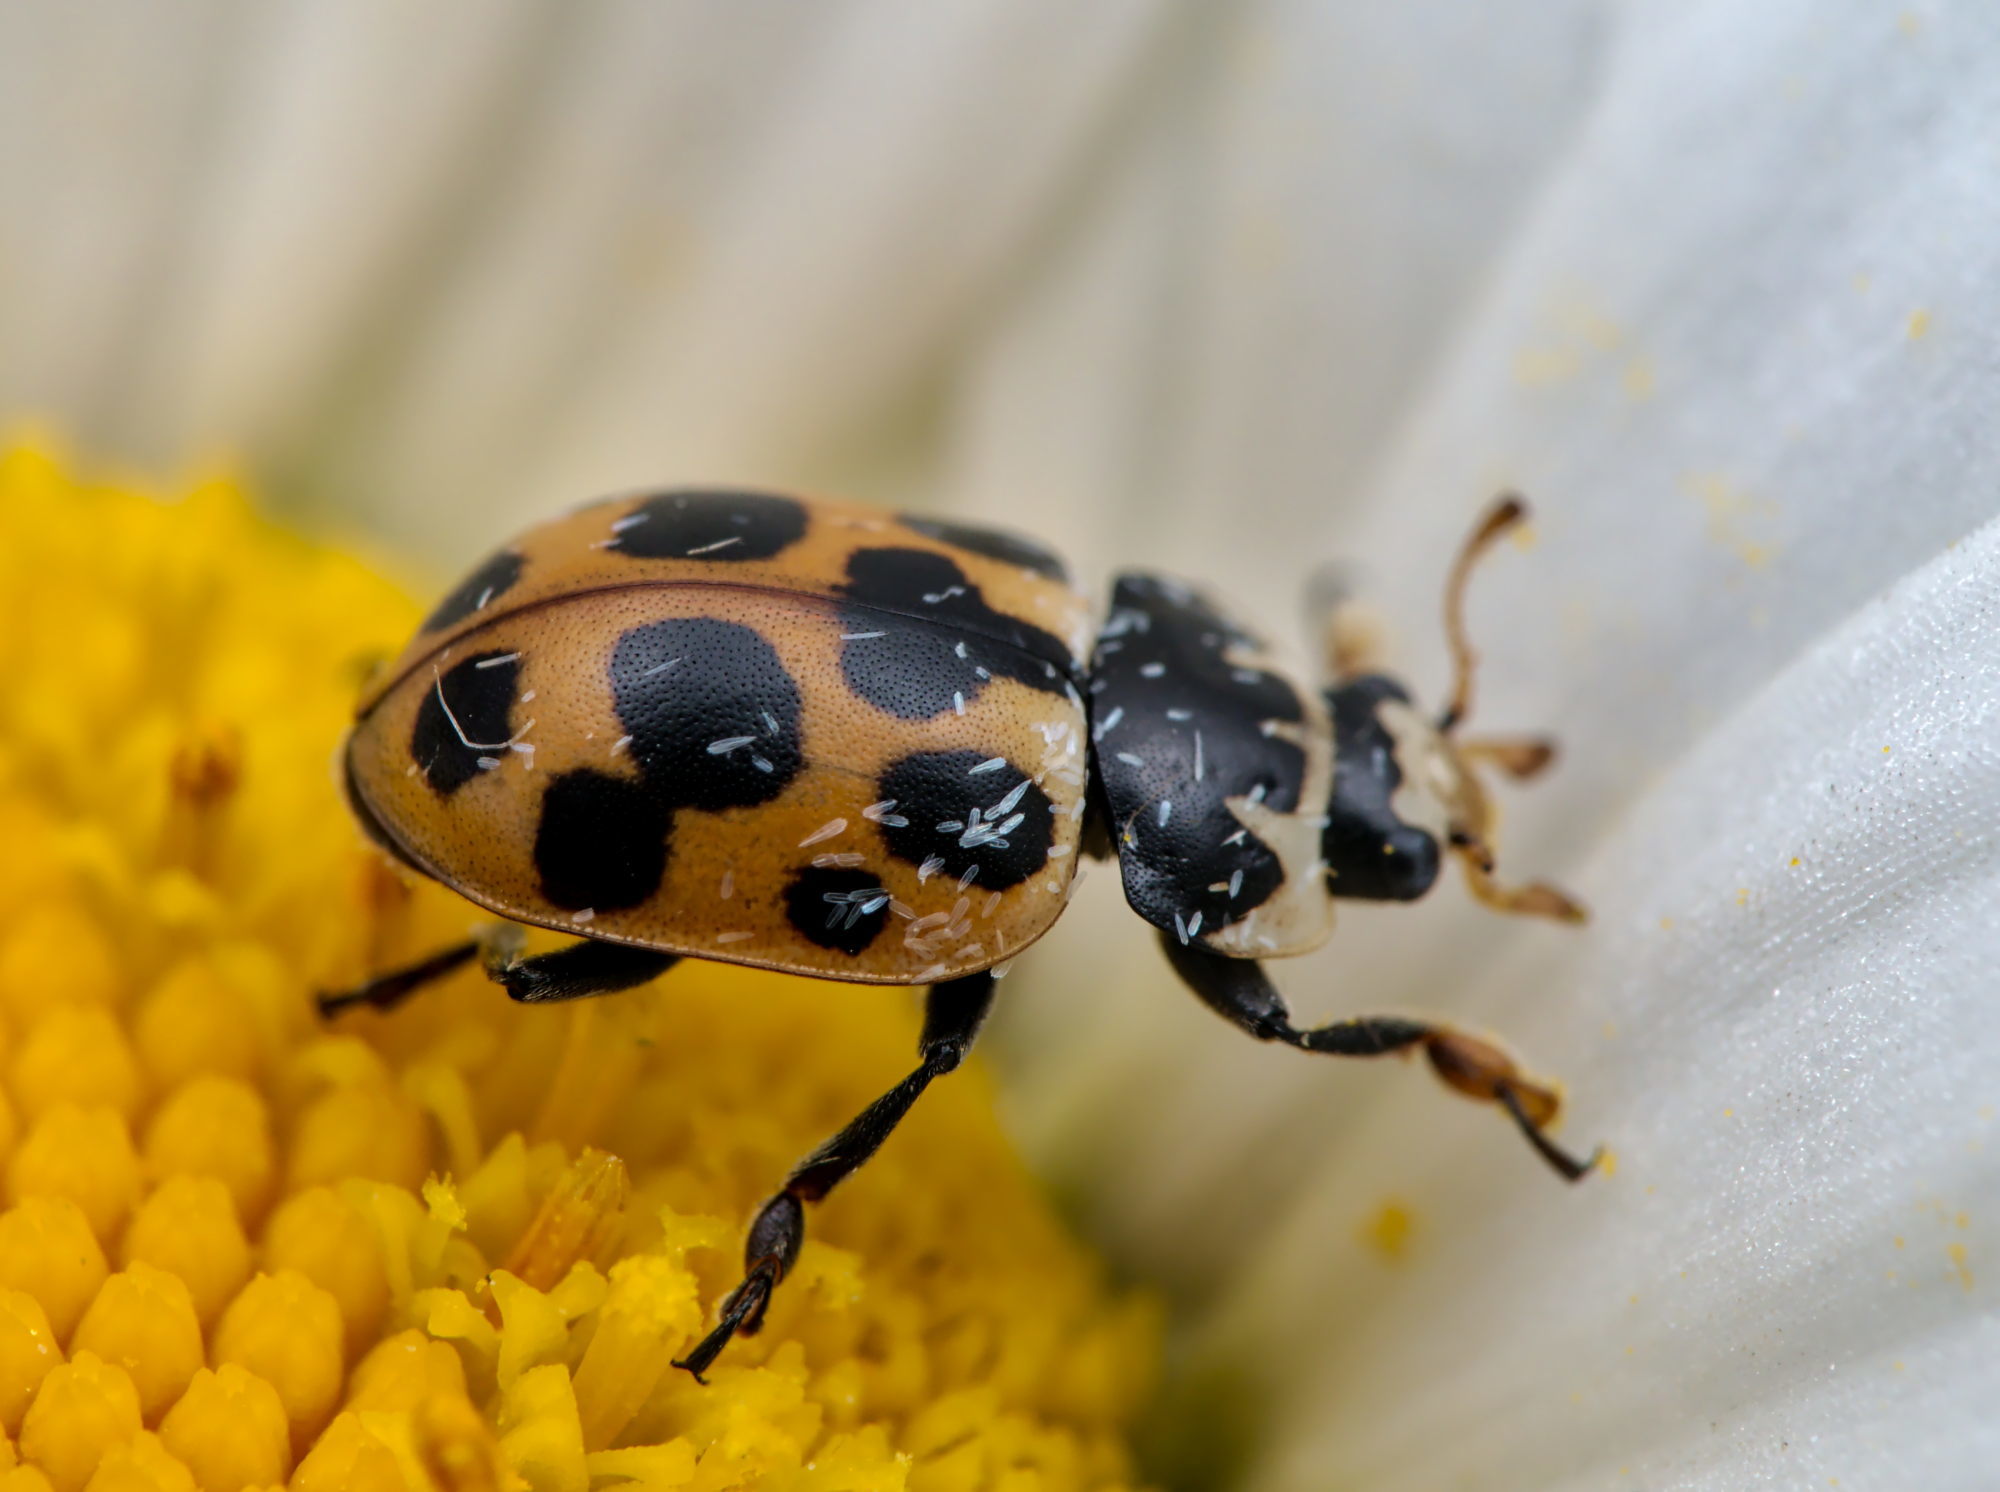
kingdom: Animalia
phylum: Arthropoda
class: Insecta
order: Coleoptera
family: Coccinellidae
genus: Ceratomegilla
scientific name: Ceratomegilla notata
